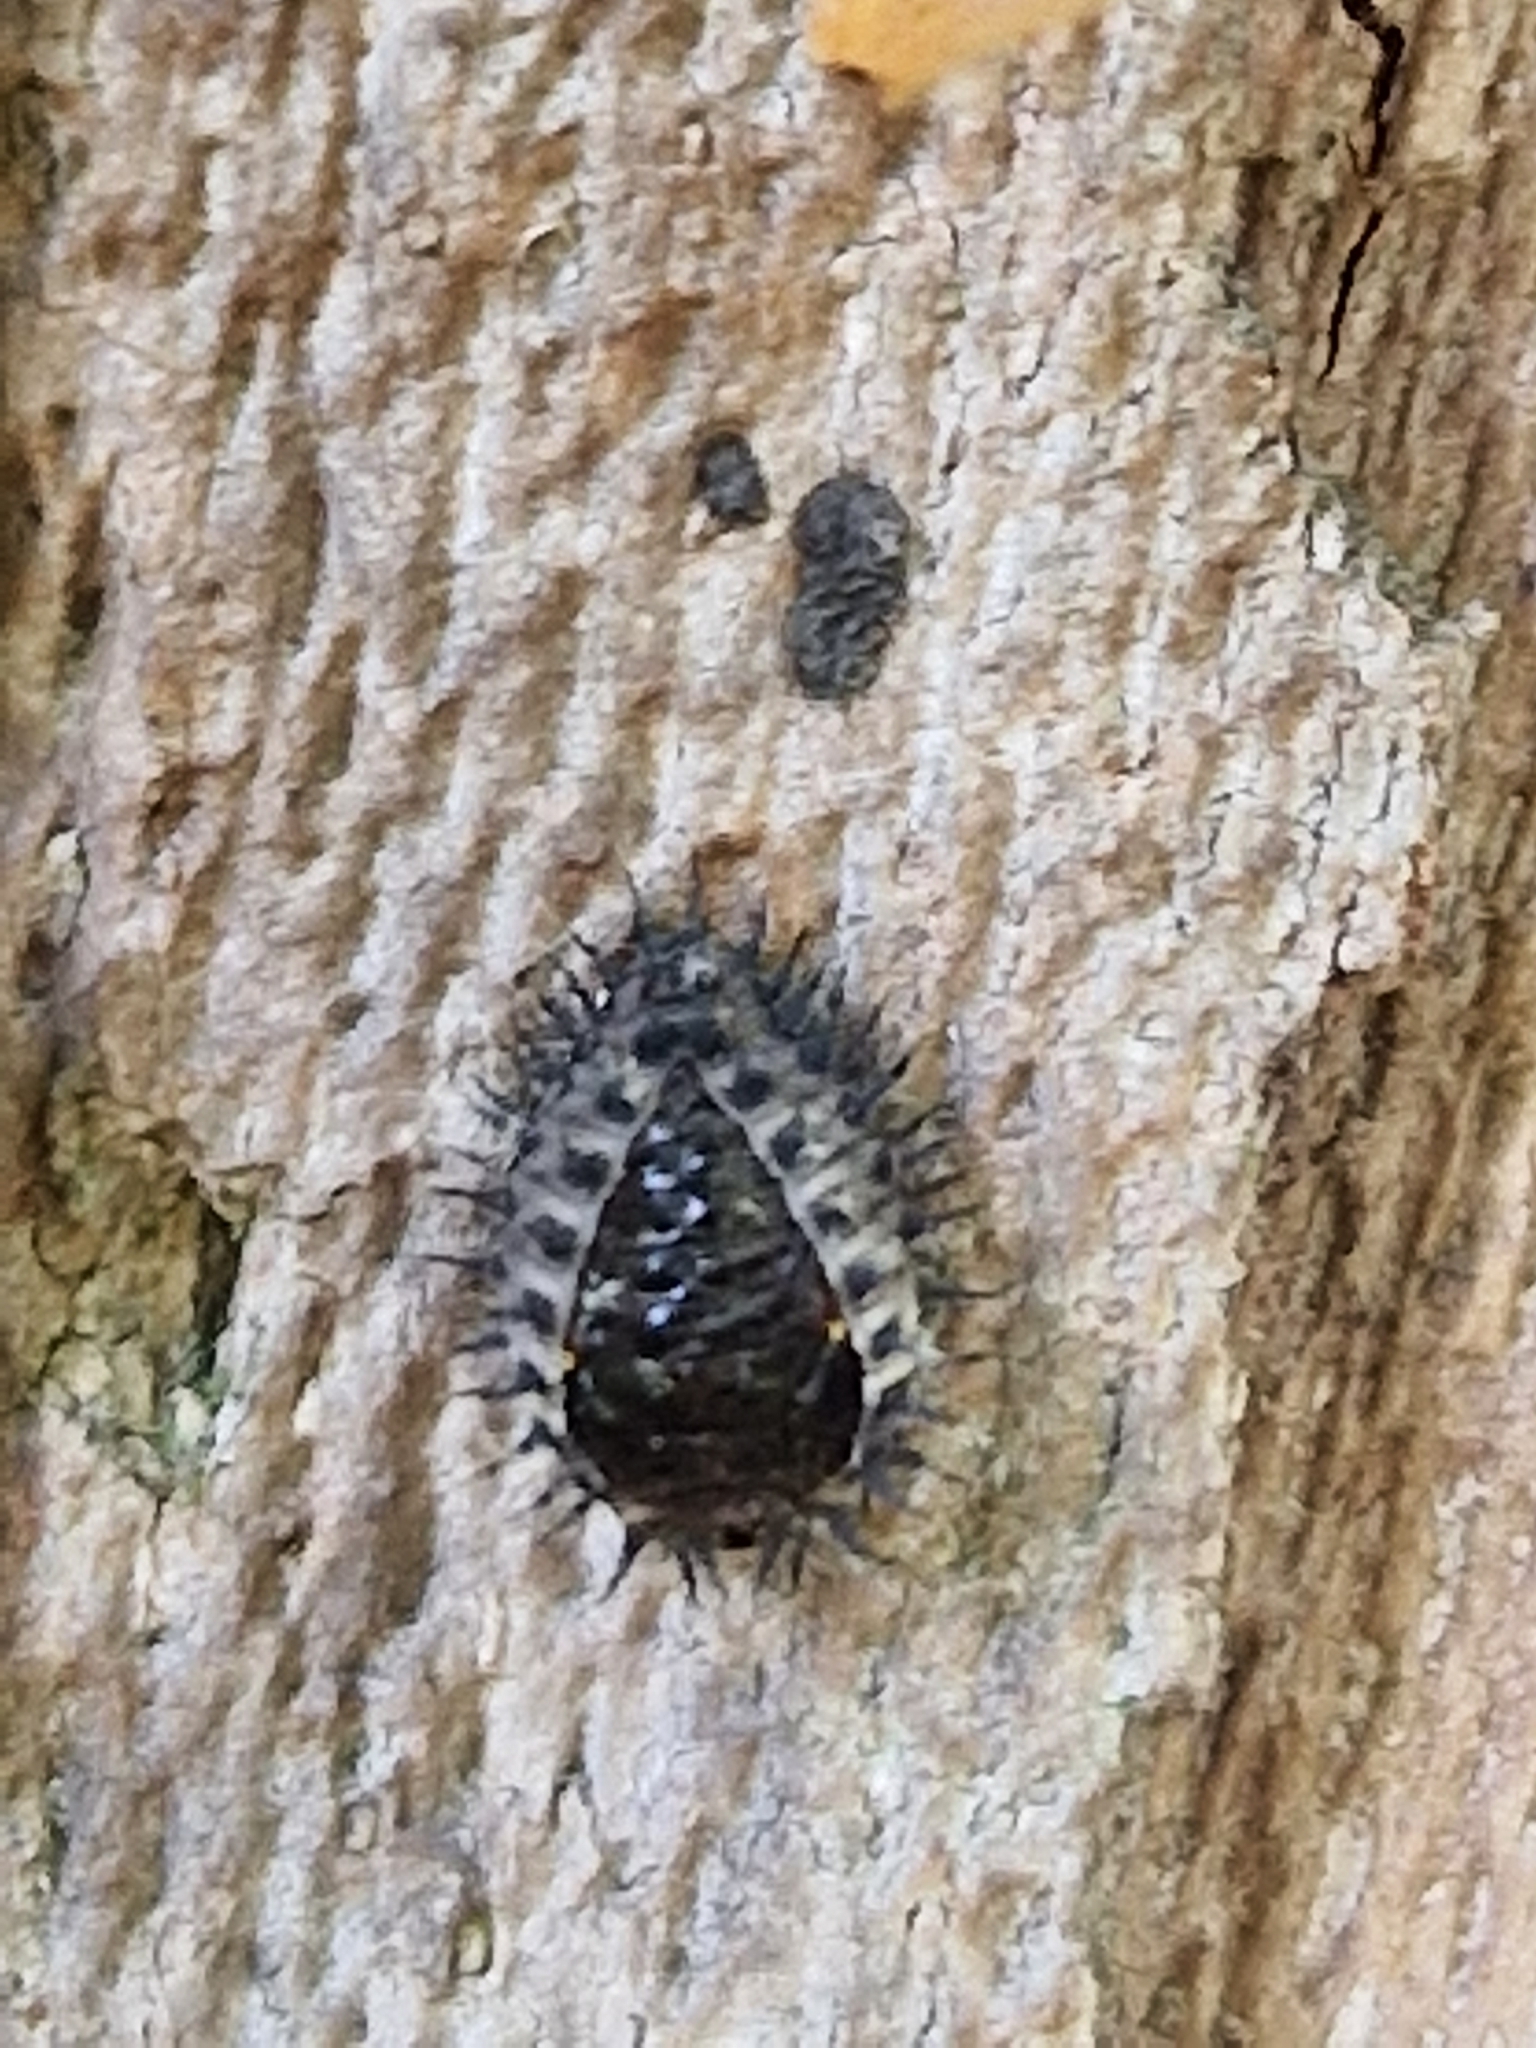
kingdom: Animalia
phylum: Arthropoda
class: Insecta
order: Coleoptera
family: Coccinellidae
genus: Chilocorus
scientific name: Chilocorus renipustulatus
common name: Kidney-spot ladybird
